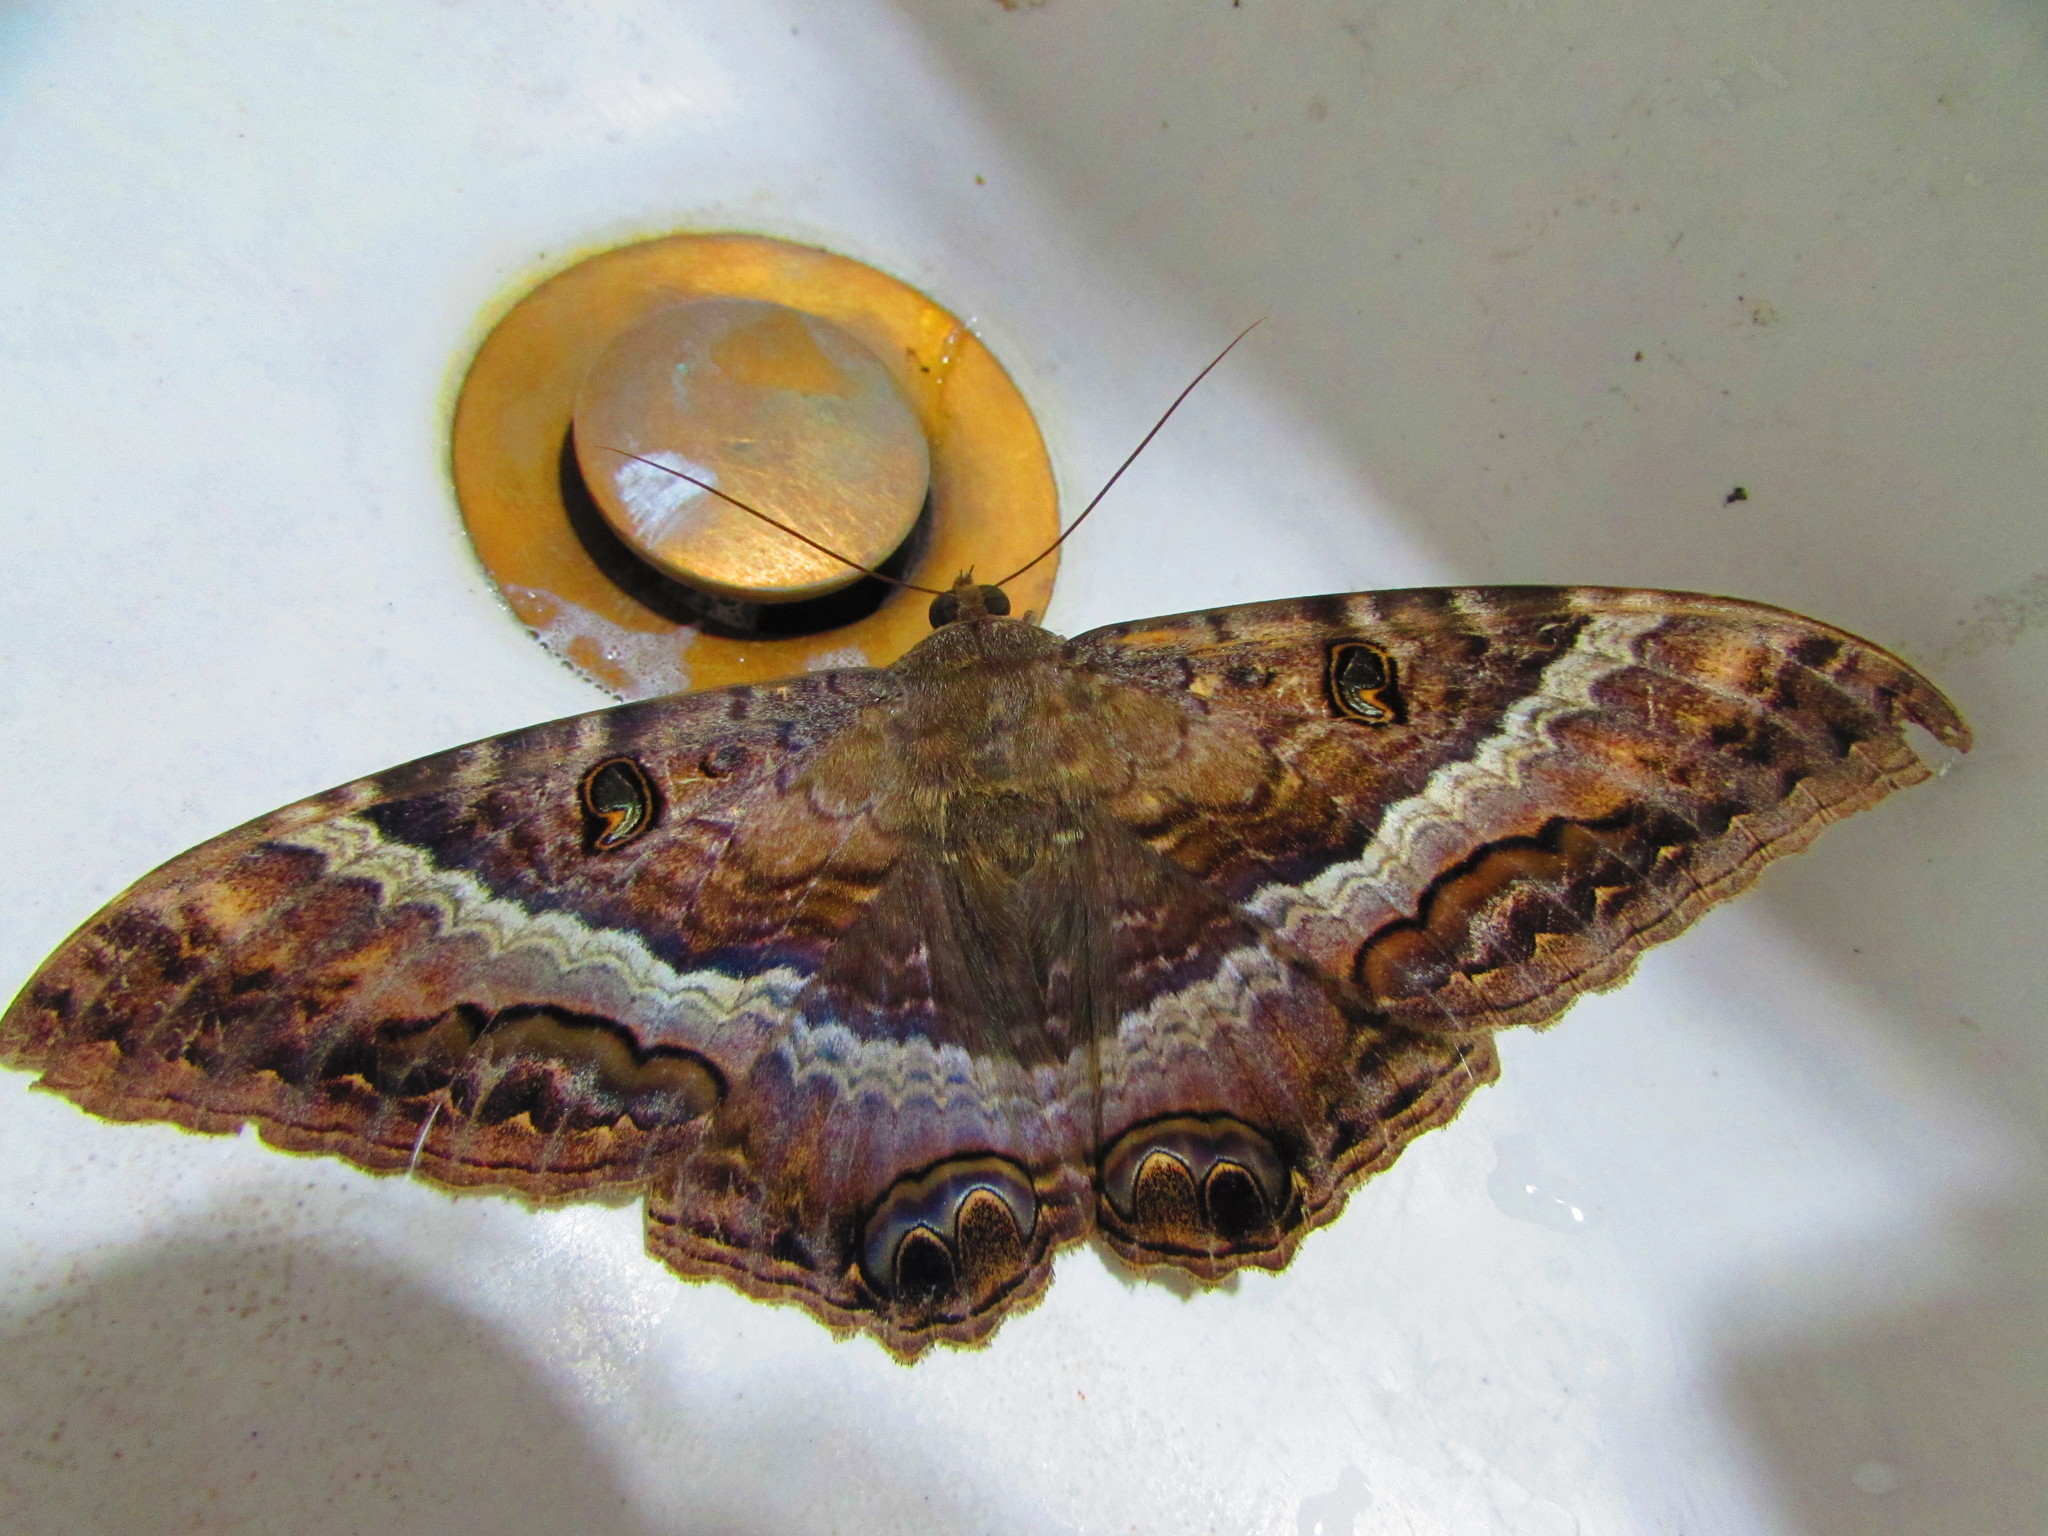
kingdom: Animalia
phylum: Arthropoda
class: Insecta
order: Lepidoptera
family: Erebidae
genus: Ascalapha
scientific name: Ascalapha odorata
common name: Black witch
